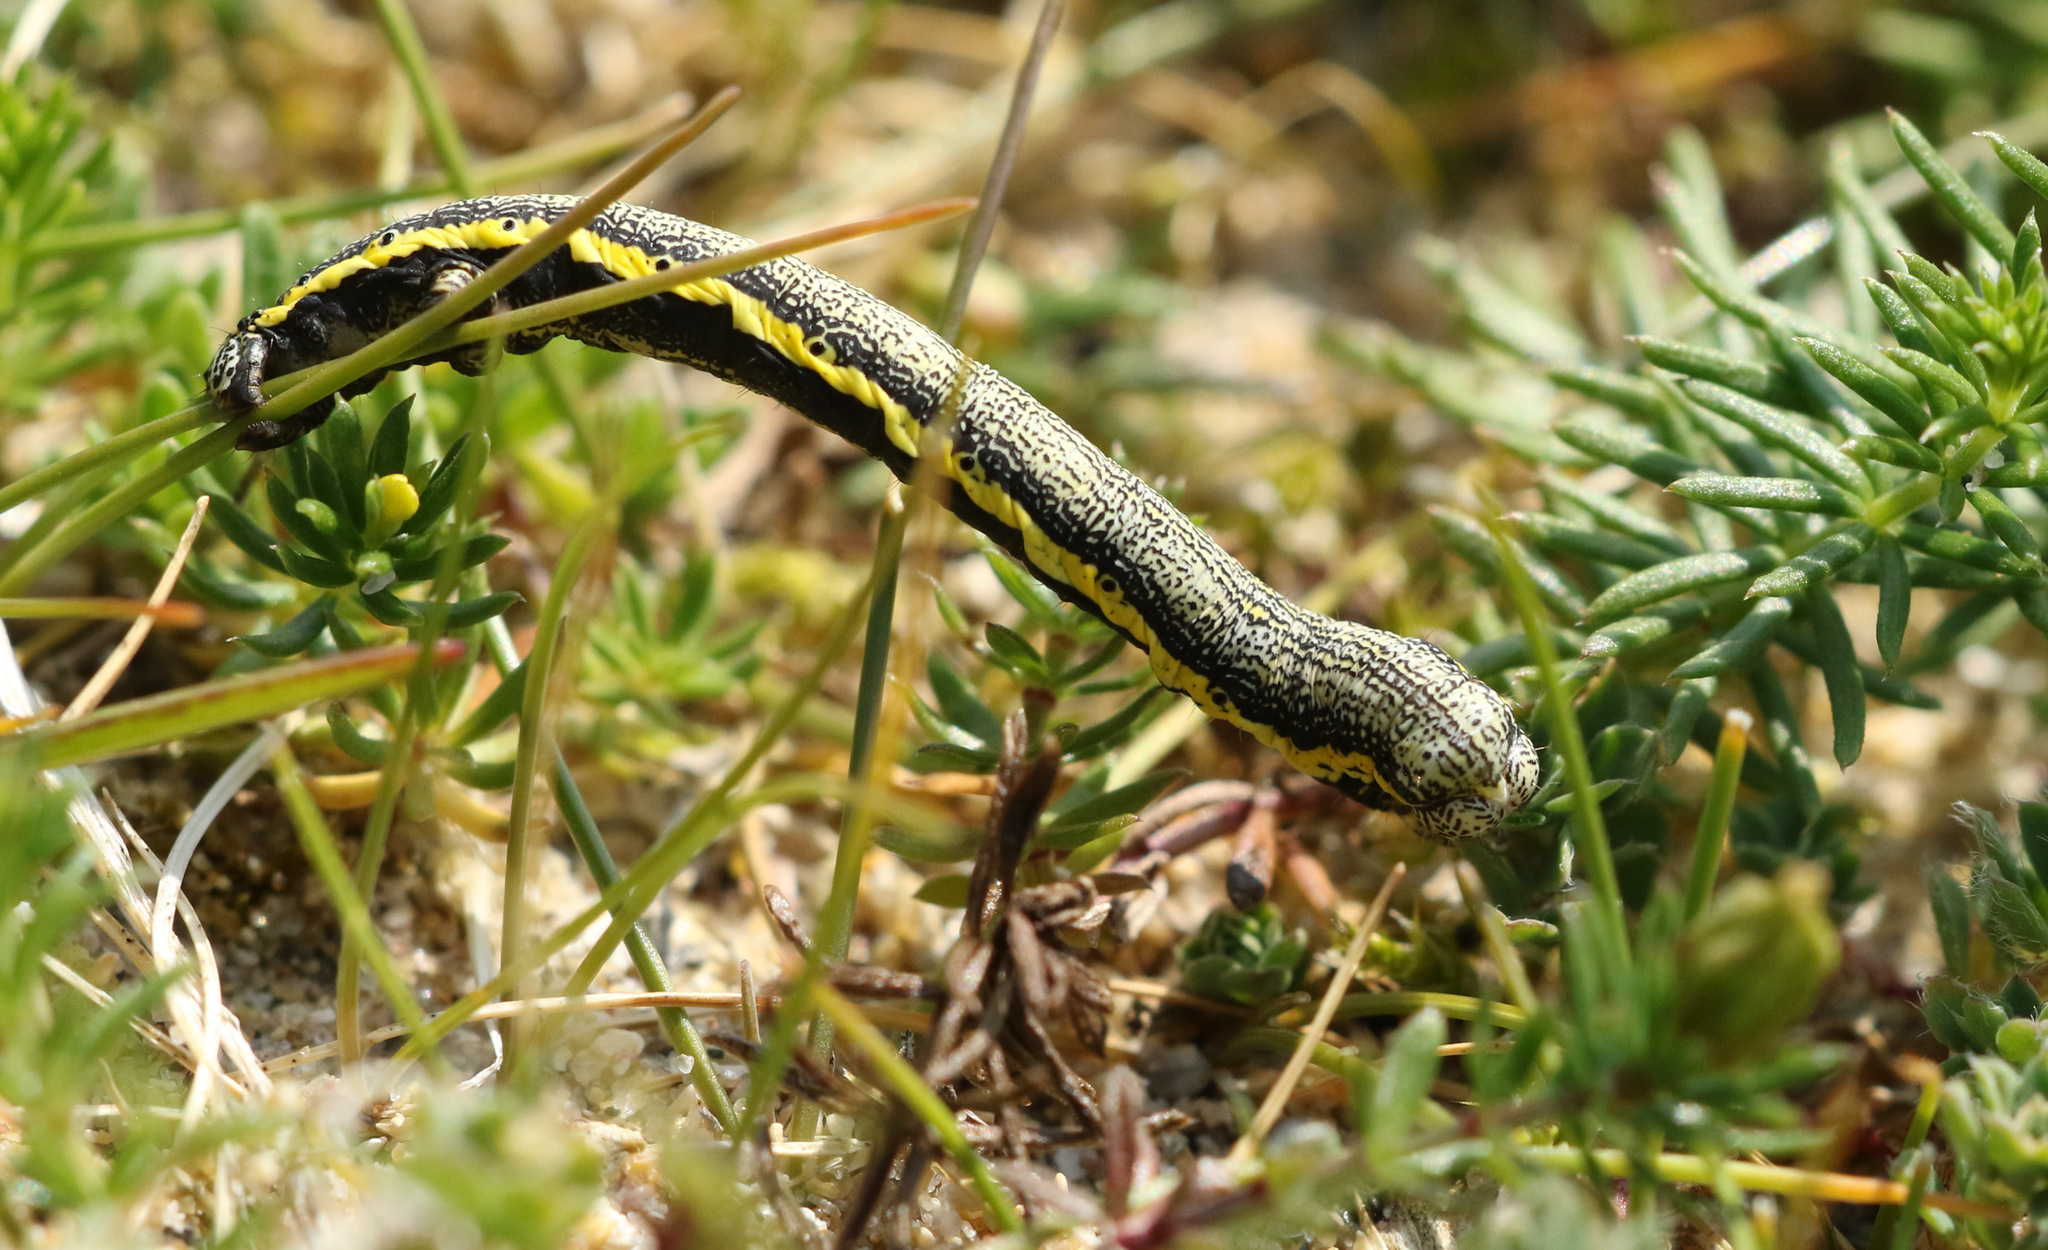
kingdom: Animalia
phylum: Arthropoda
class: Insecta
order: Lepidoptera
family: Geometridae
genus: Lycia
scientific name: Lycia zonaria
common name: Belted beauty
